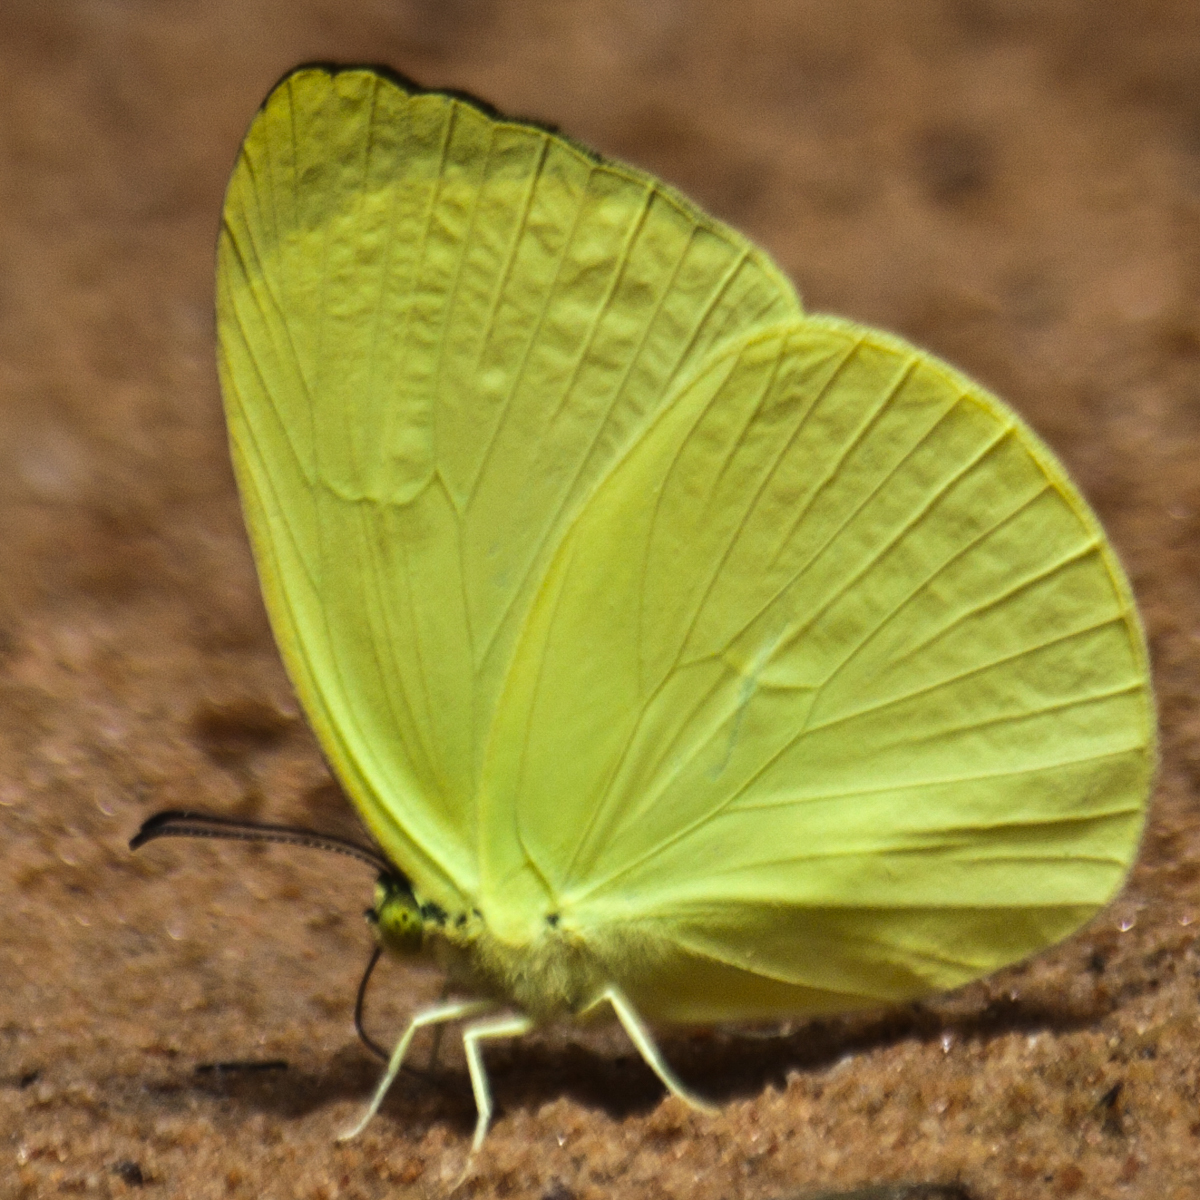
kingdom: Animalia
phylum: Arthropoda
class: Insecta
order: Lepidoptera
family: Pieridae
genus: Gandaca
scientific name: Gandaca harina
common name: Tree yellow
